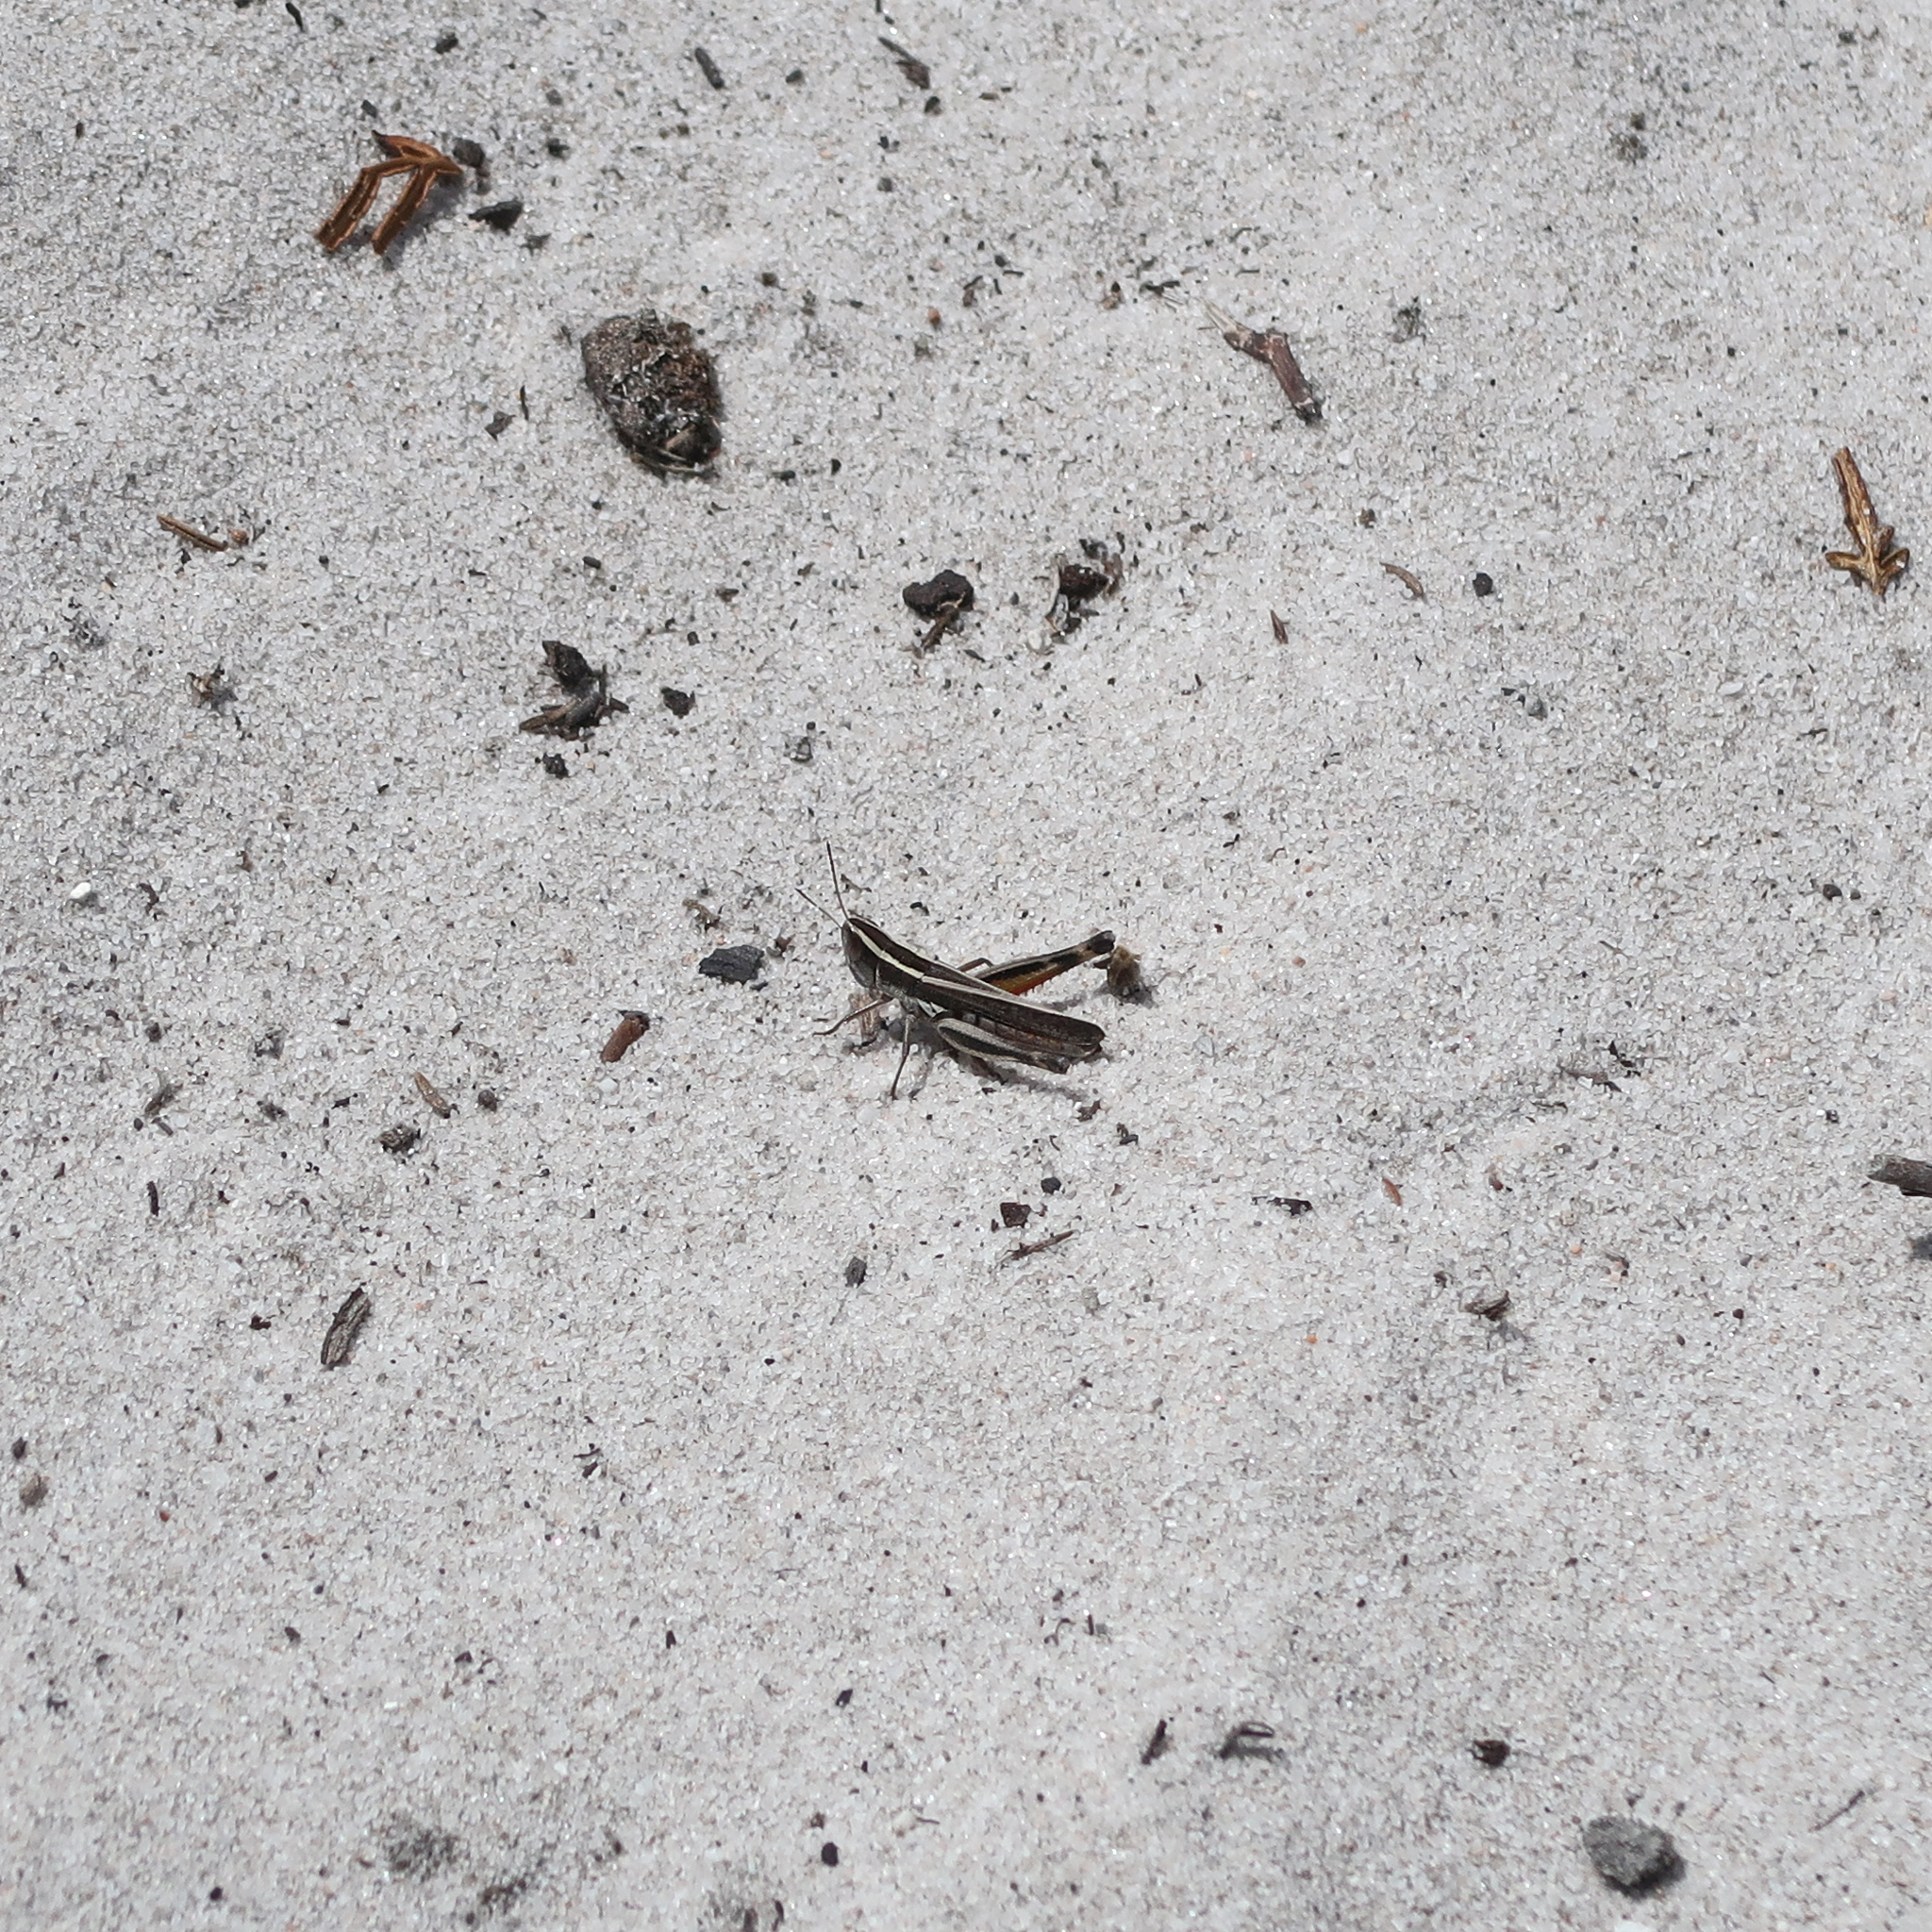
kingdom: Animalia
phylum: Arthropoda
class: Insecta
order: Orthoptera
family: Acrididae
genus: Macrotona
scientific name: Macrotona australis
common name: Common macrotona
